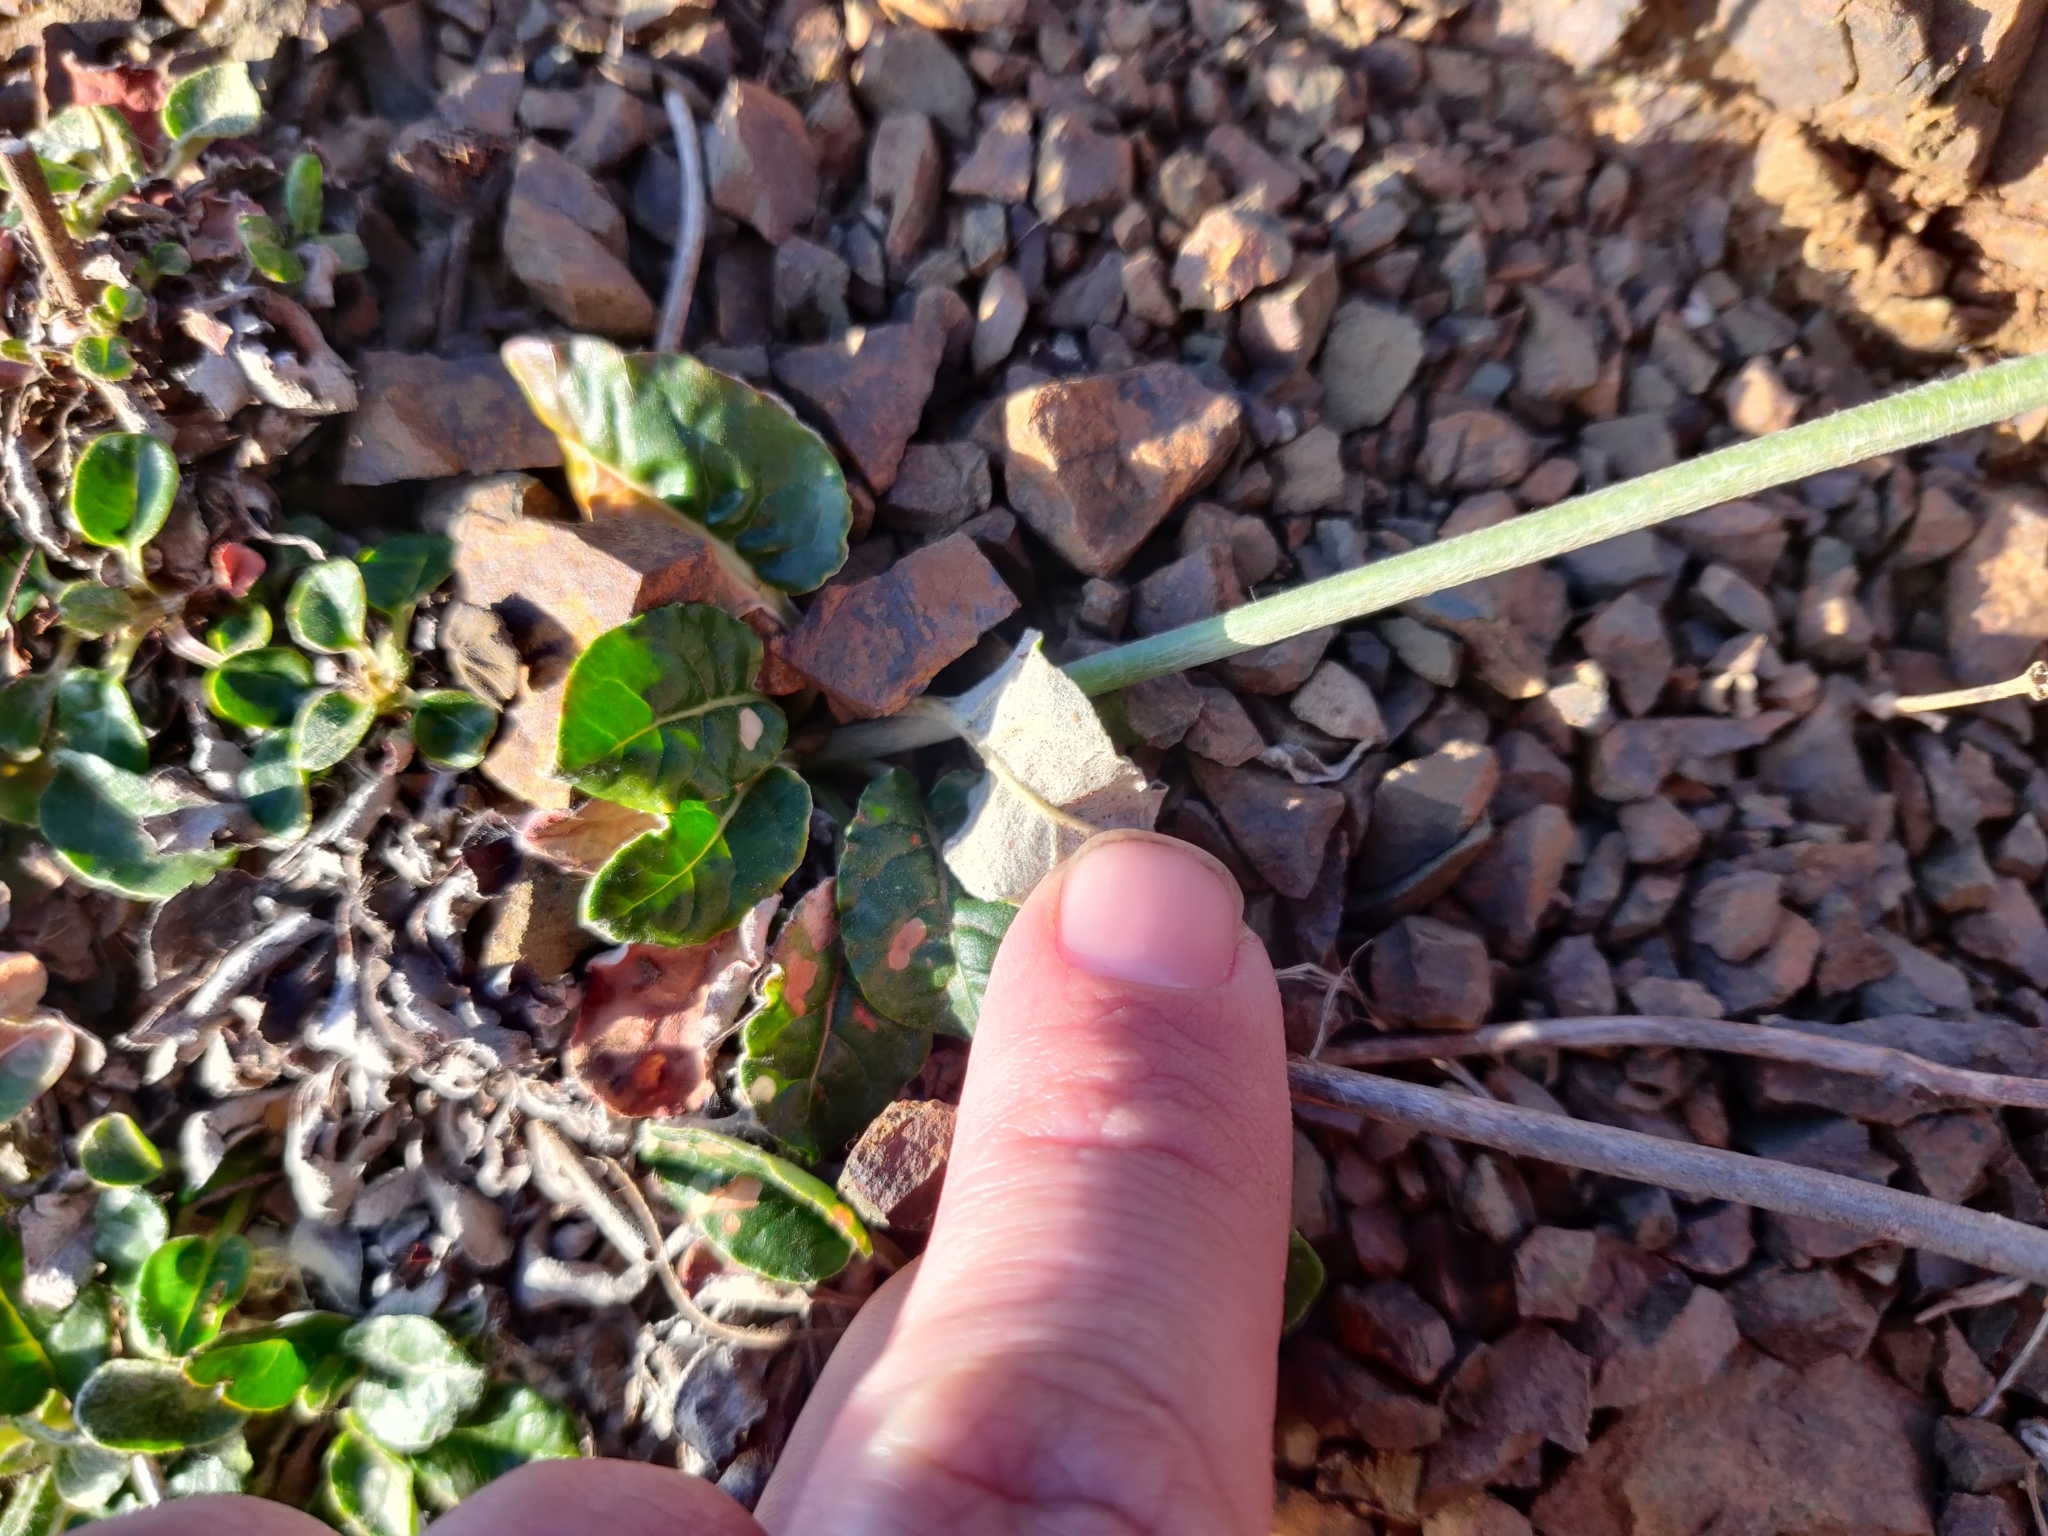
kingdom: Plantae
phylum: Tracheophyta
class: Magnoliopsida
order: Caryophyllales
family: Polygonaceae
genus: Eriogonum
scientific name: Eriogonum latifolium
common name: Seaside wild buckwheat
